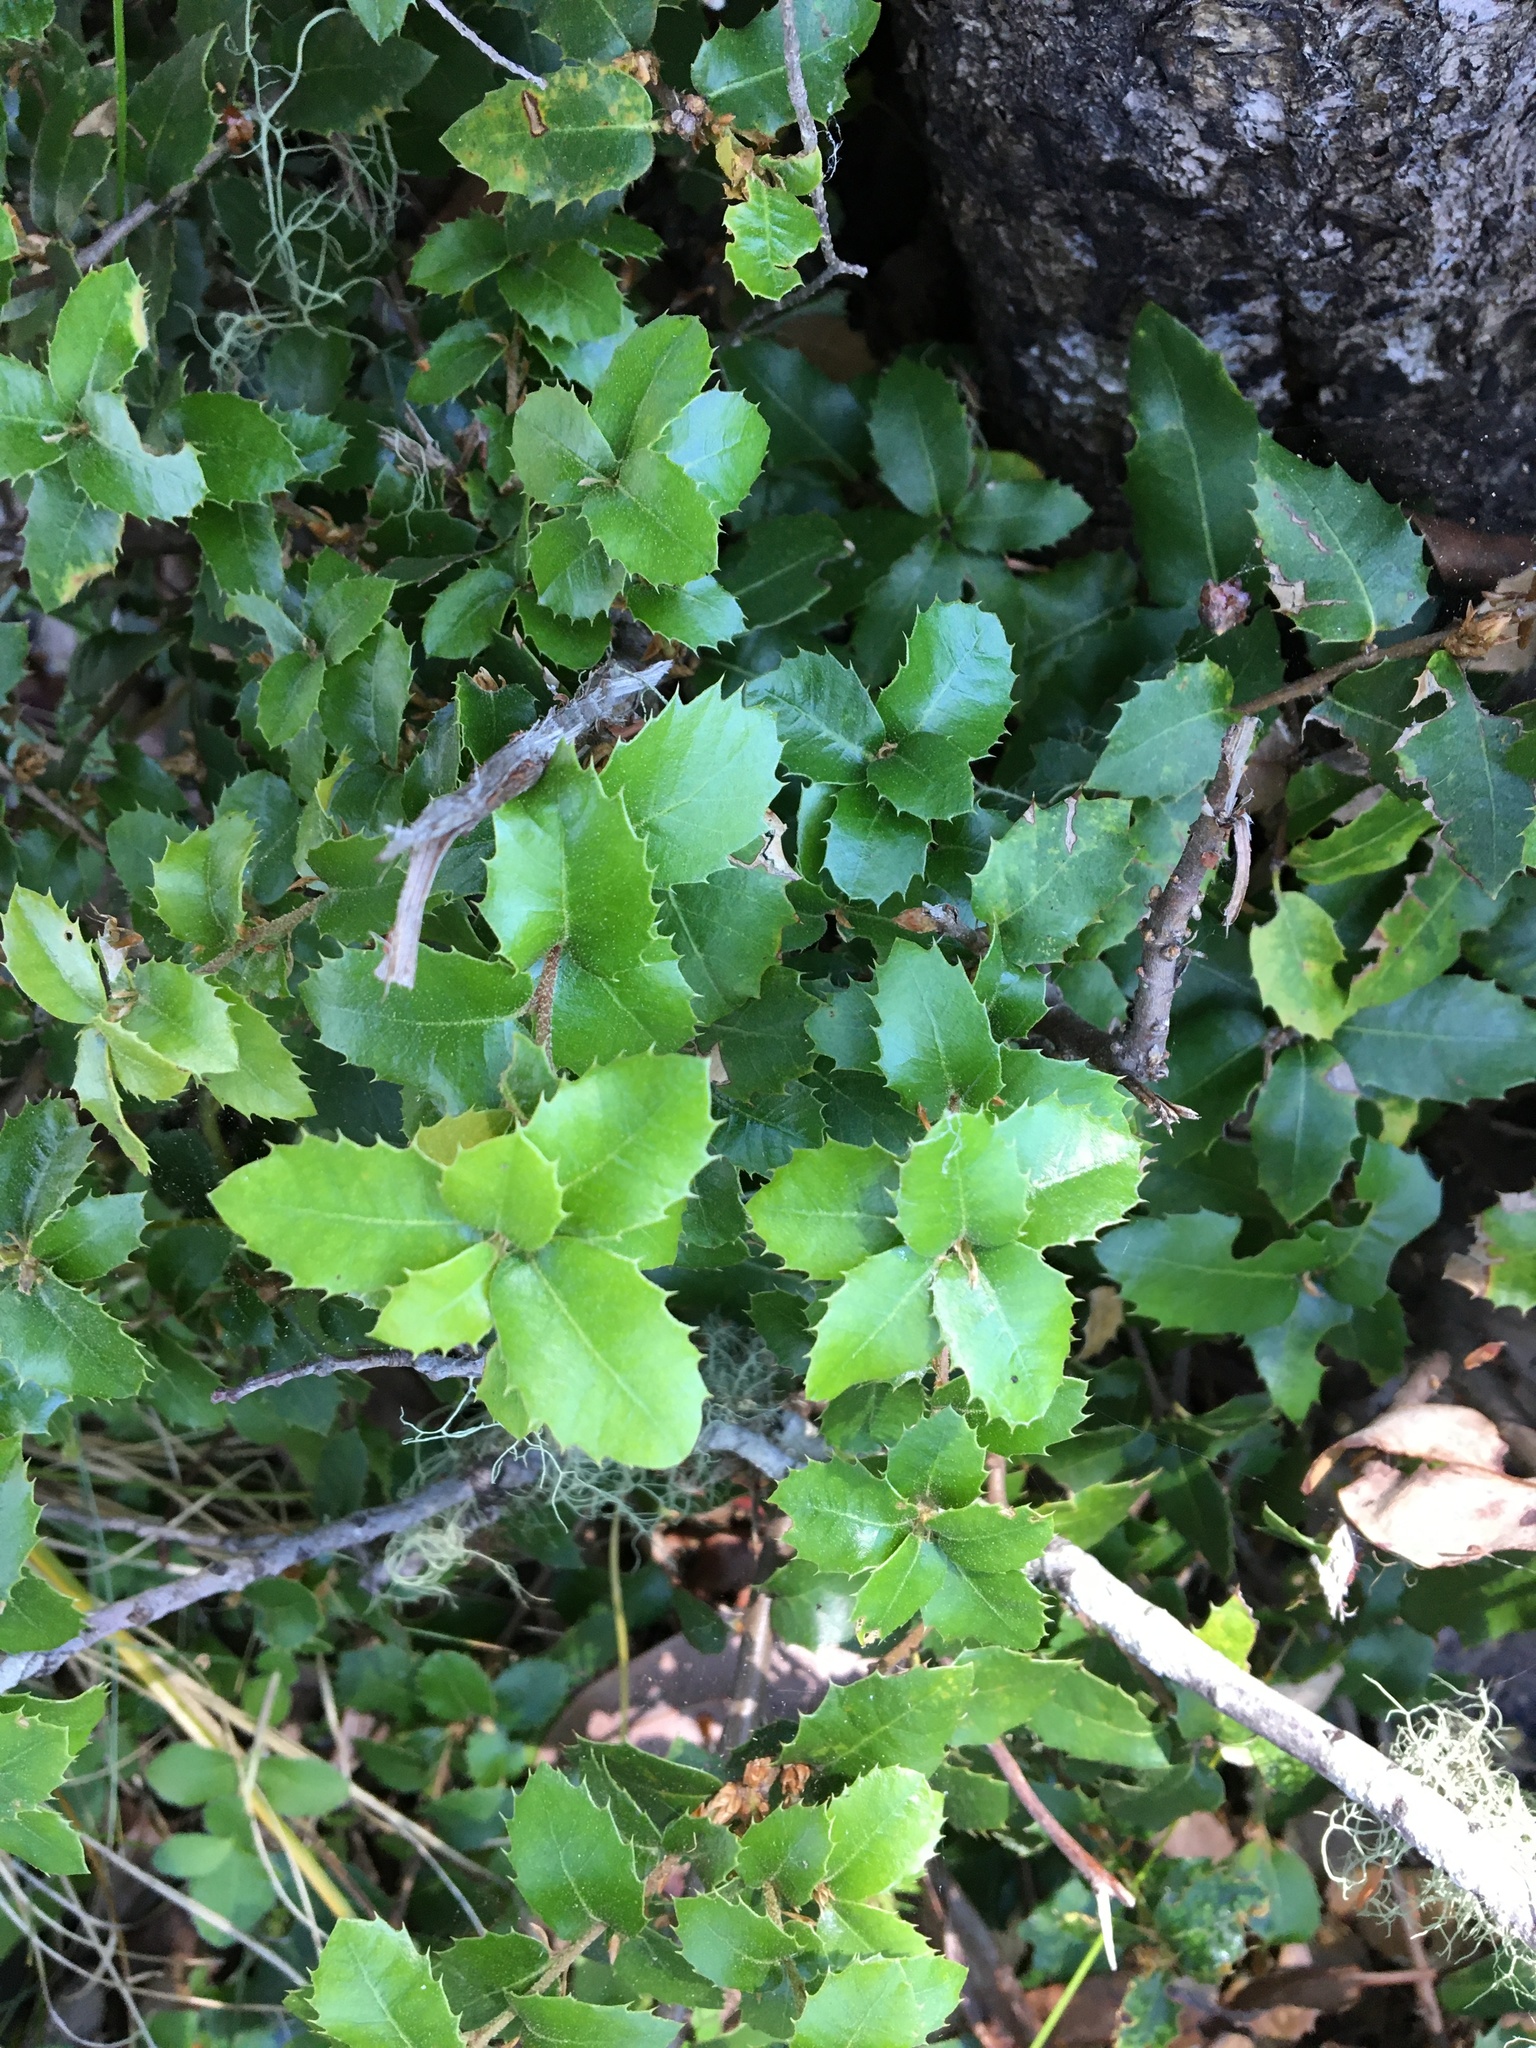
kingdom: Plantae
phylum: Tracheophyta
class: Magnoliopsida
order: Fagales
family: Fagaceae
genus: Quercus
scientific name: Quercus chrysolepis
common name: Canyon live oak
